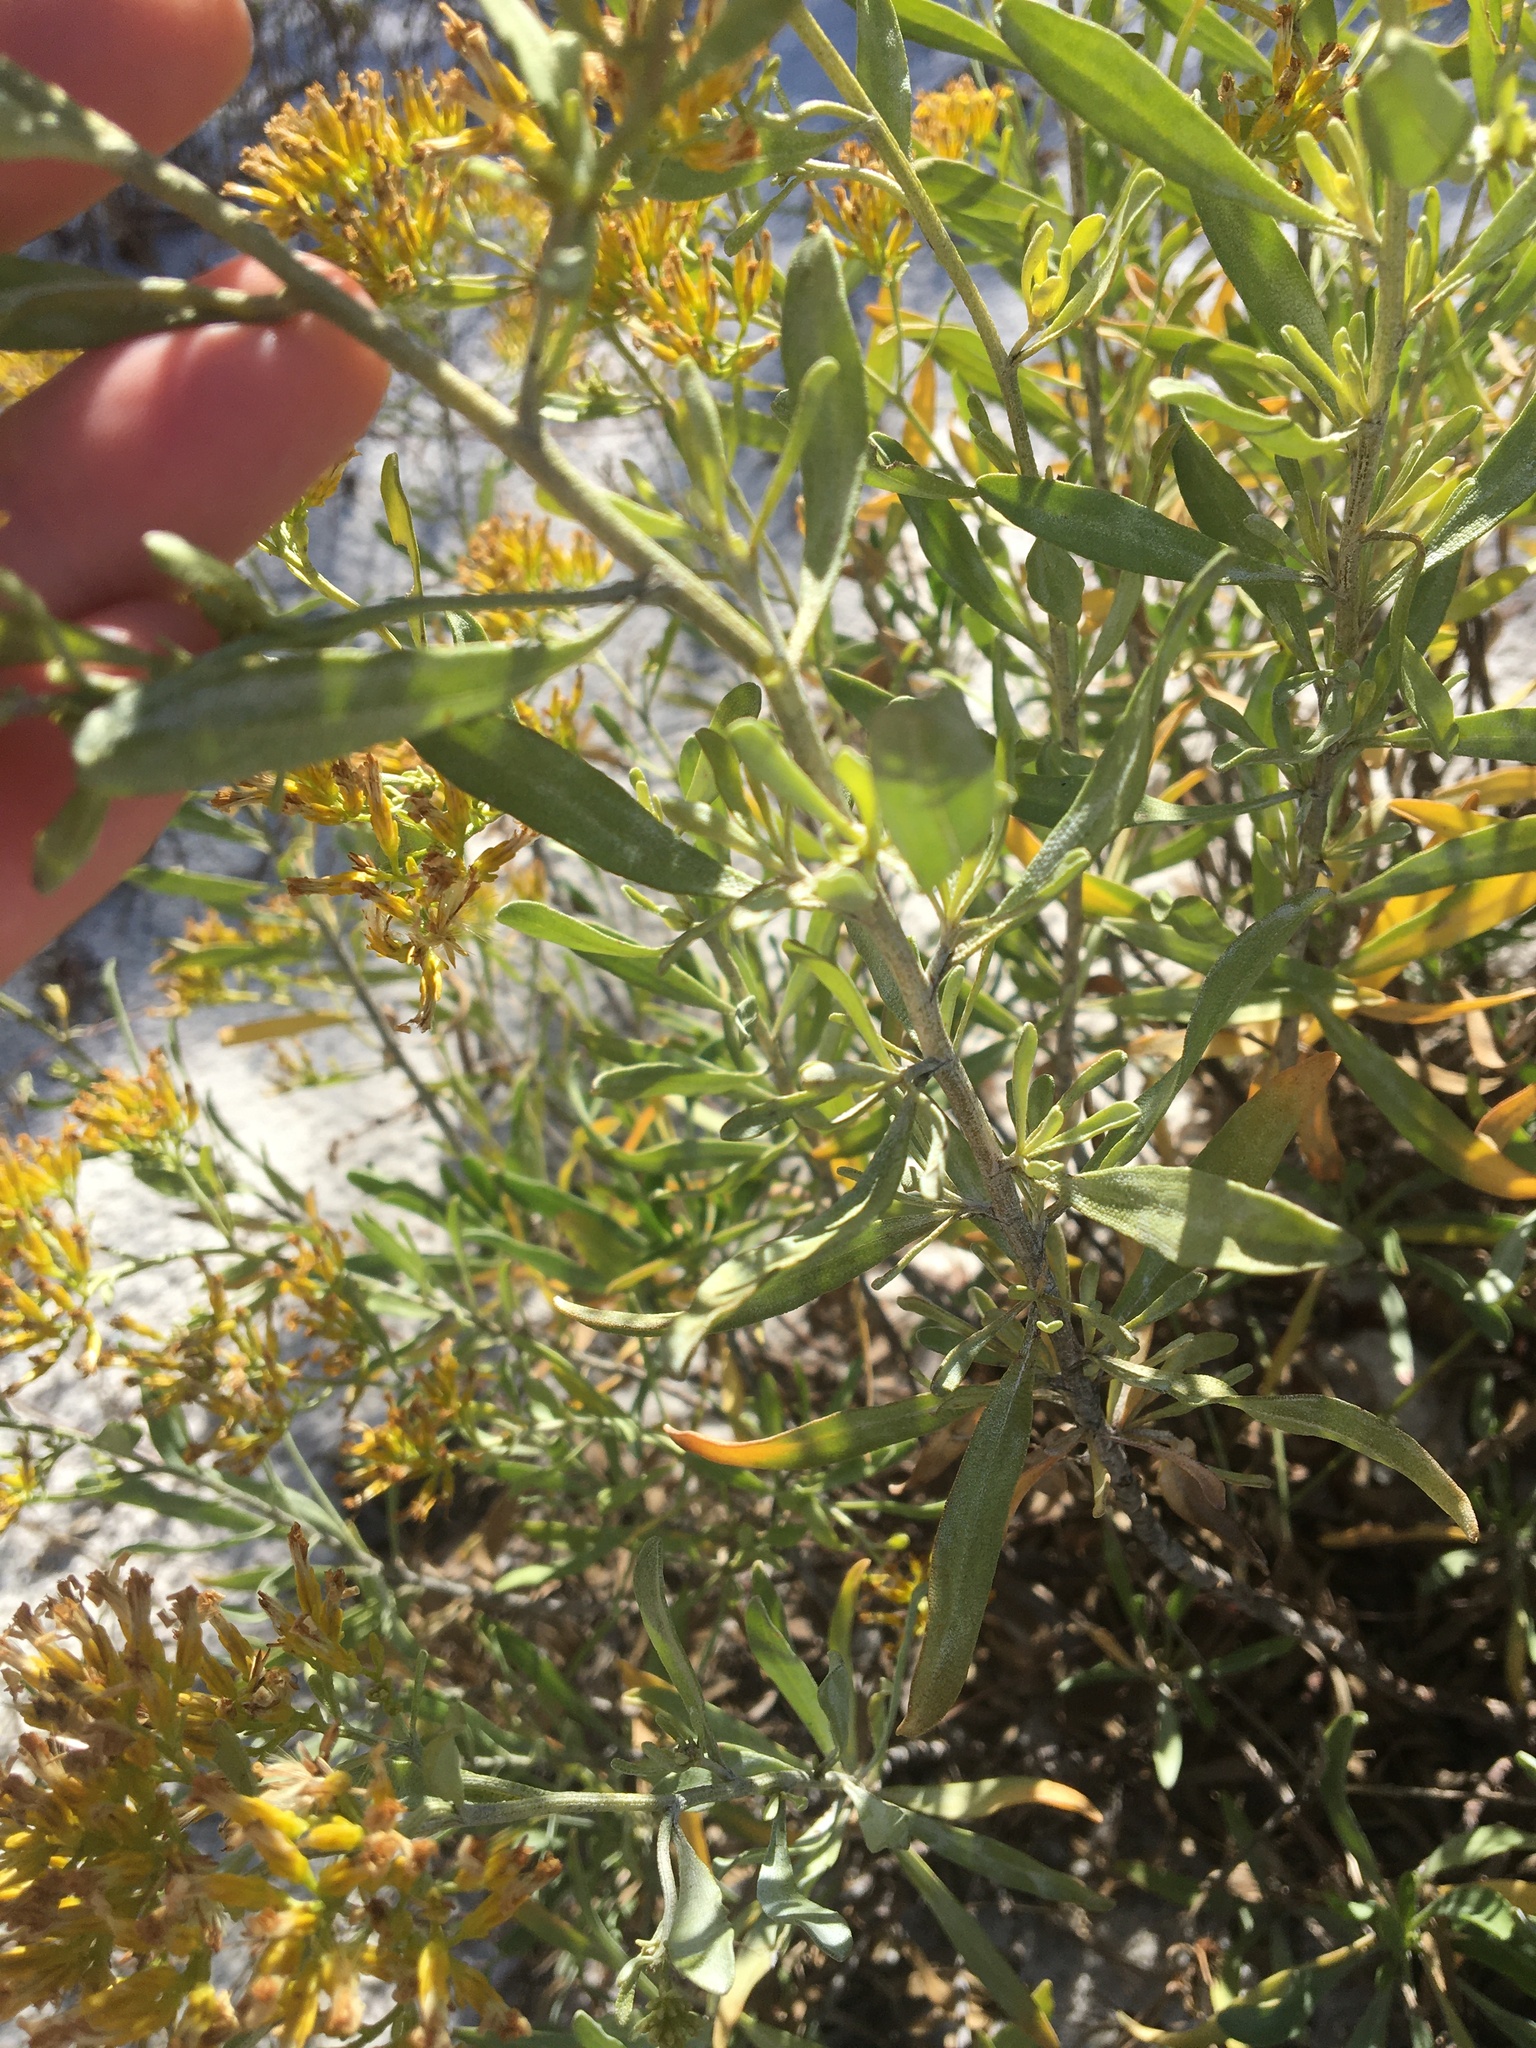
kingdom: Plantae
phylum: Tracheophyta
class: Magnoliopsida
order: Asterales
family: Asteraceae
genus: Chrysoma
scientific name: Chrysoma pauciflosculosa
